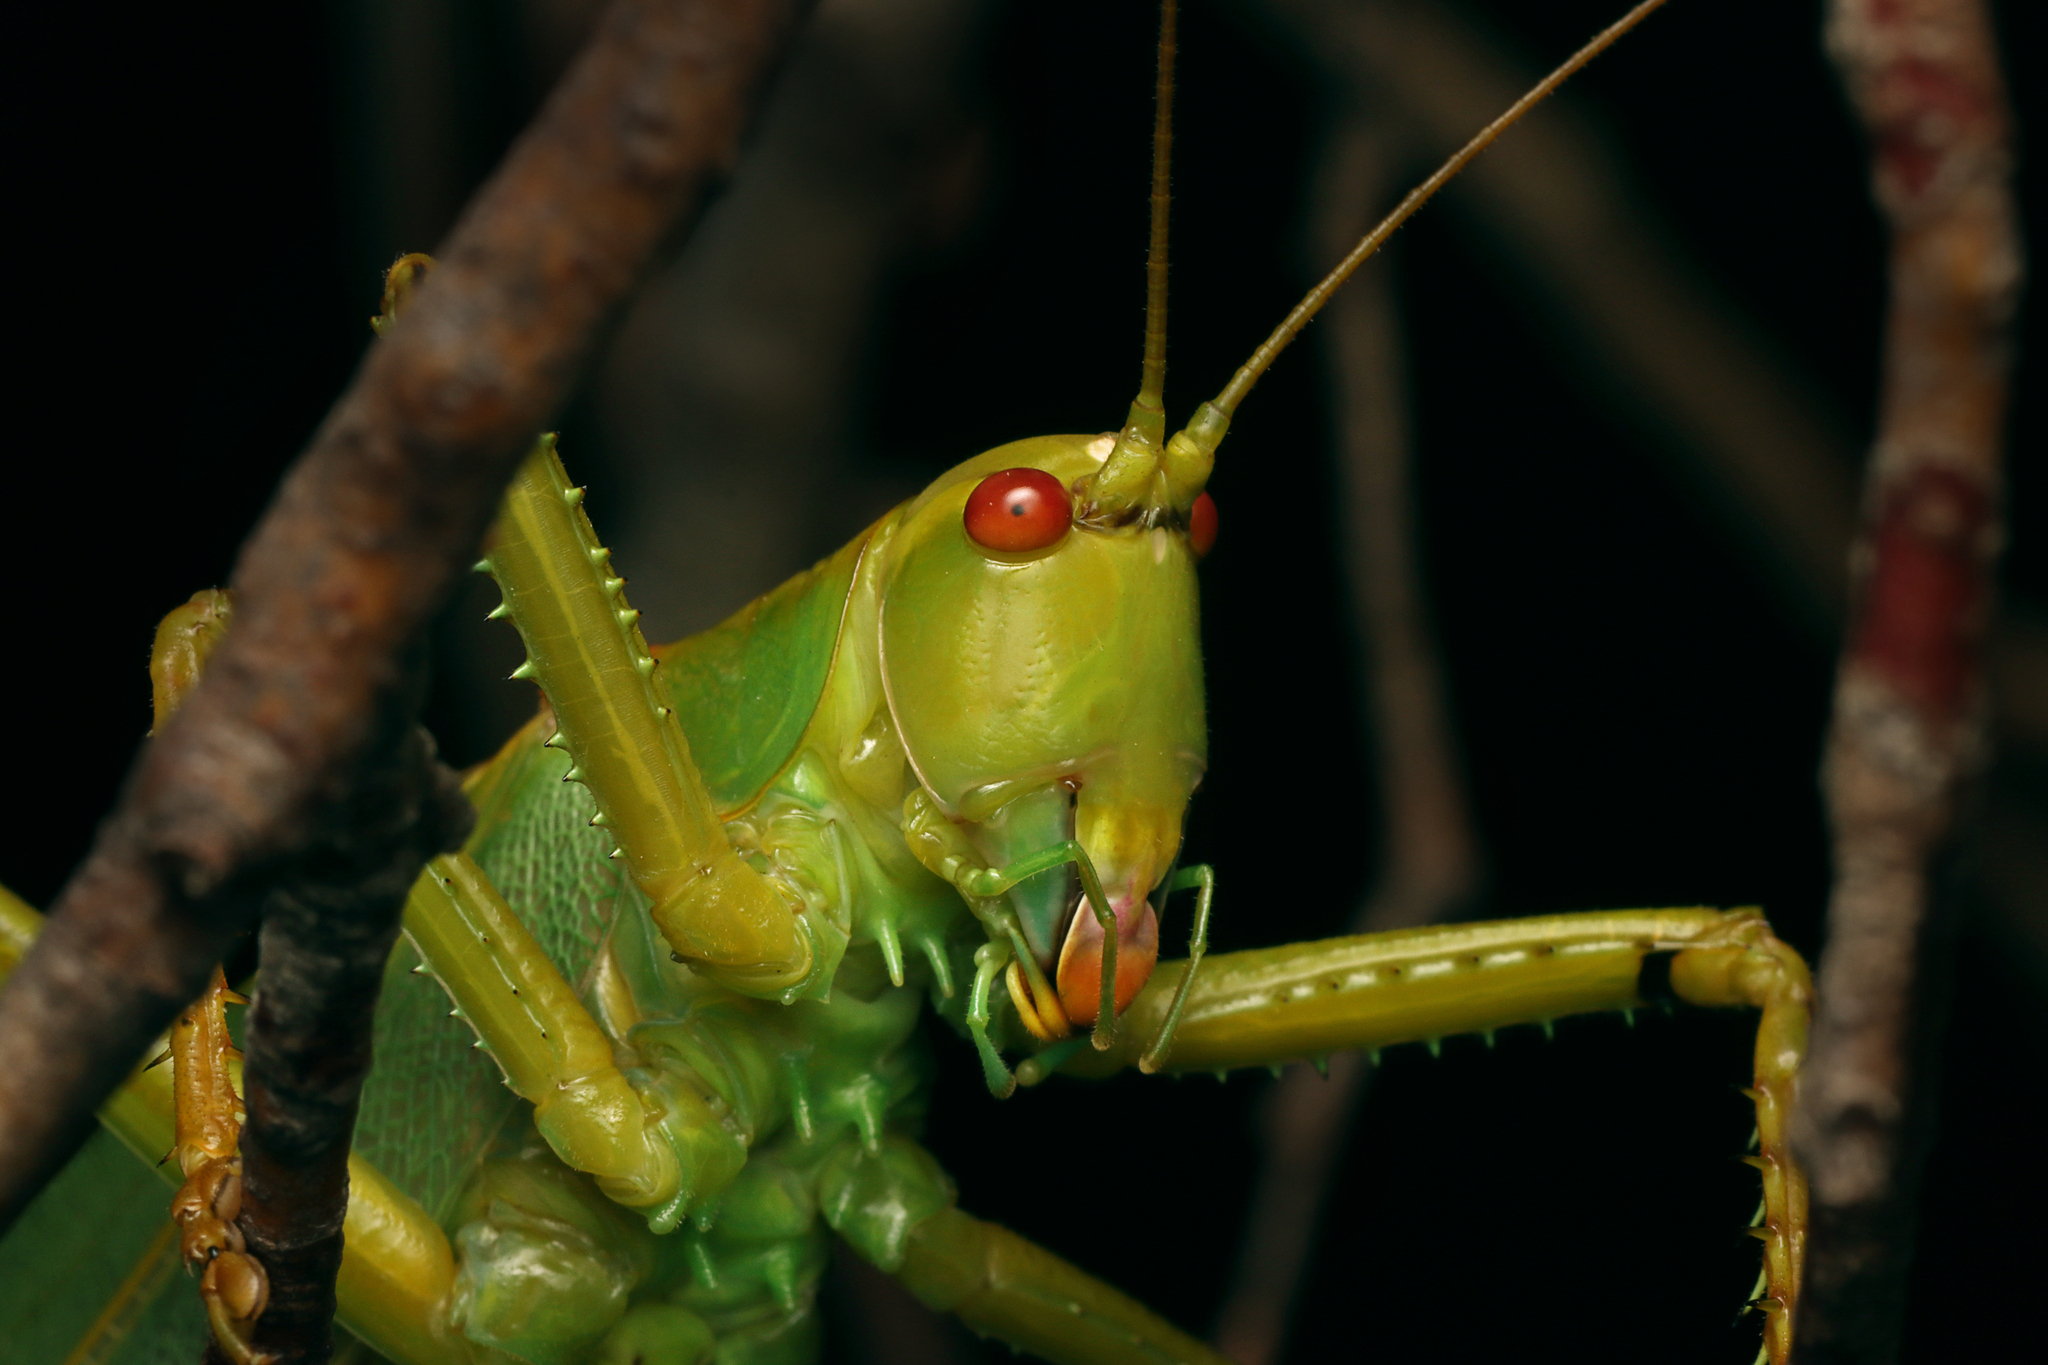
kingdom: Animalia
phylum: Arthropoda
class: Insecta
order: Orthoptera
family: Tettigoniidae
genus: Terpandrus
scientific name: Terpandrus calperum
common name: Calperum gumleaf katydid
